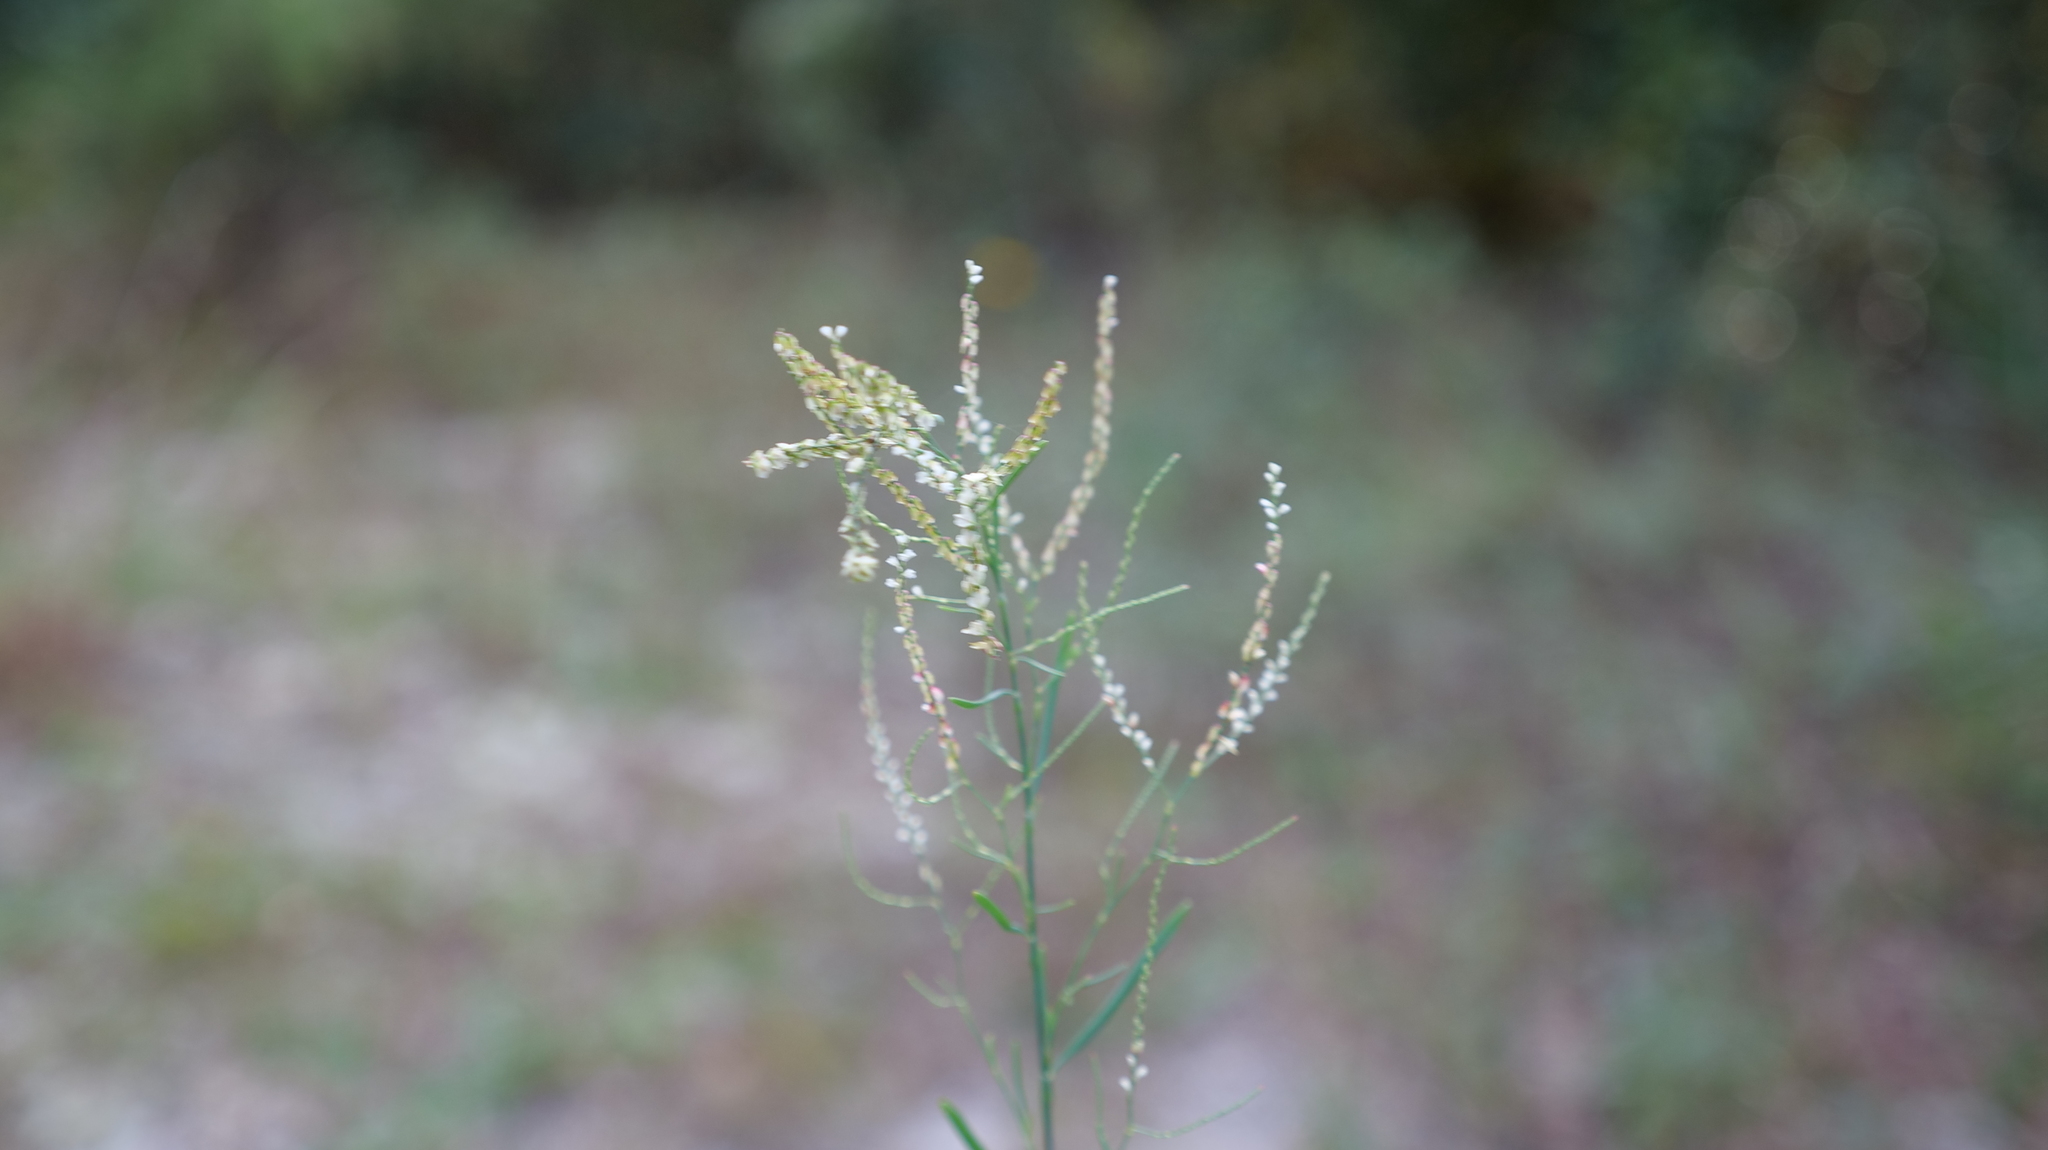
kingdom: Plantae
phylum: Tracheophyta
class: Magnoliopsida
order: Caryophyllales
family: Polygonaceae
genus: Polygonella
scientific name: Polygonella gracilis
